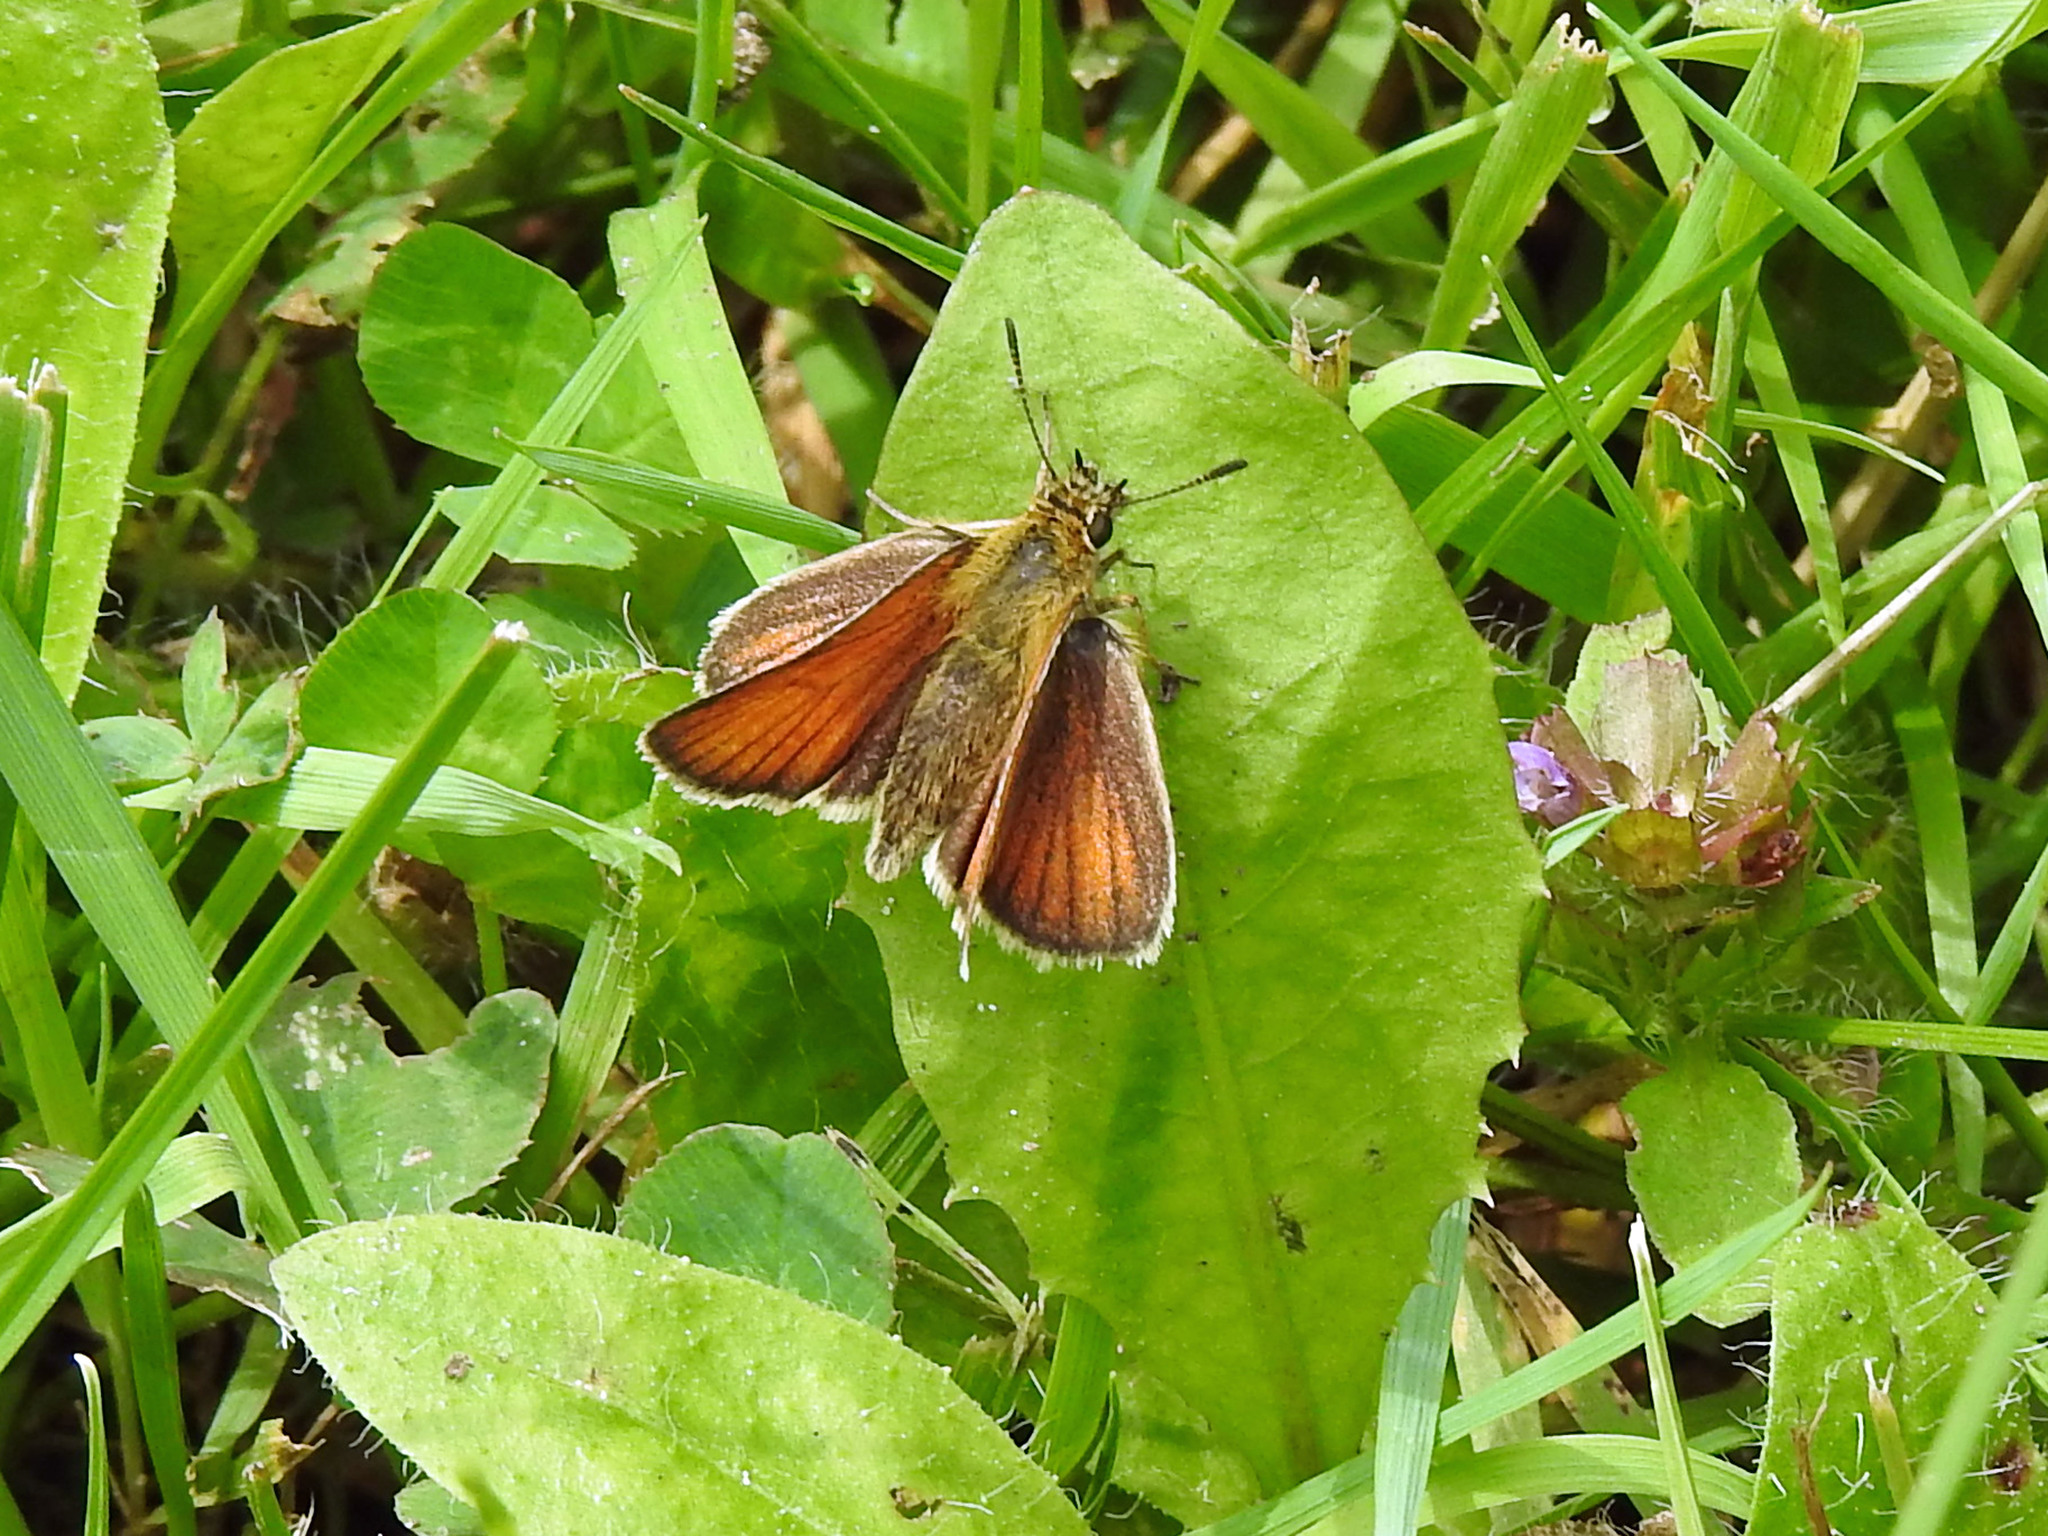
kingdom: Animalia
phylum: Arthropoda
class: Insecta
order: Lepidoptera
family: Hesperiidae
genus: Thymelicus
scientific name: Thymelicus lineola
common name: Essex skipper
